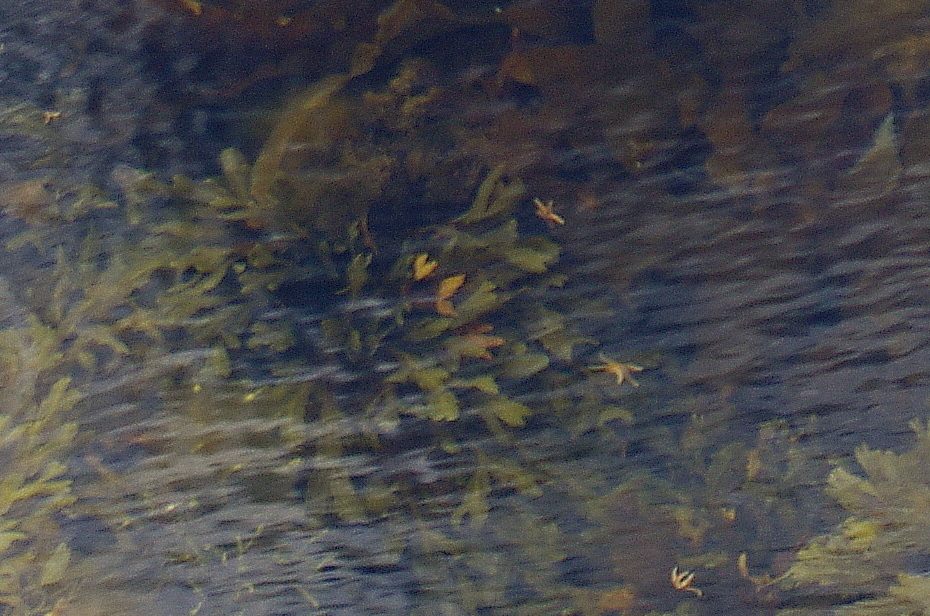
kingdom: Chromista
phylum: Ochrophyta
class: Phaeophyceae
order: Fucales
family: Fucaceae
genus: Fucus
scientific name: Fucus serratus
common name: Toothed wrack
